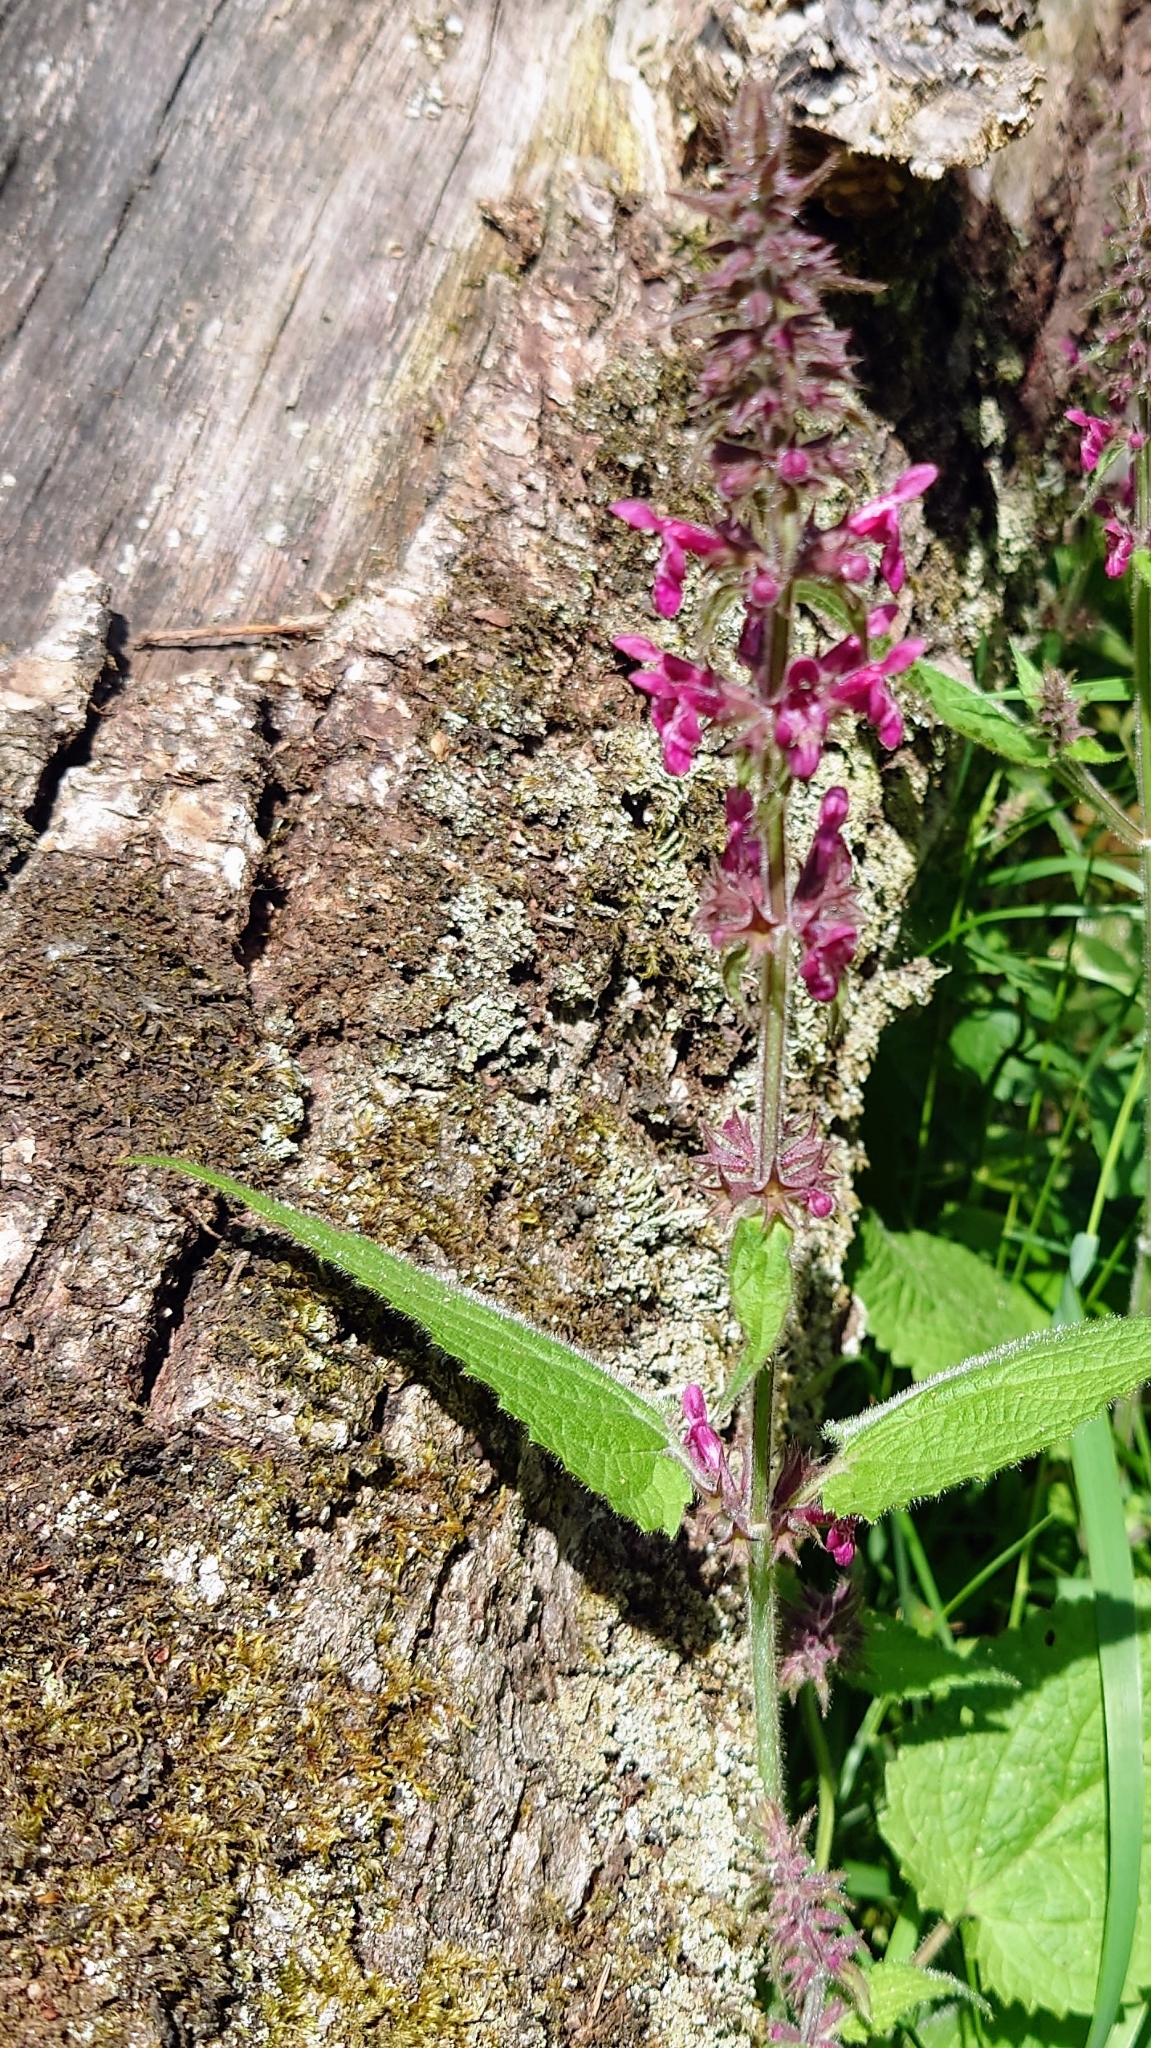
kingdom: Plantae
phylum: Tracheophyta
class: Magnoliopsida
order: Lamiales
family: Lamiaceae
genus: Stachys
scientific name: Stachys sylvatica
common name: Hedge woundwort
